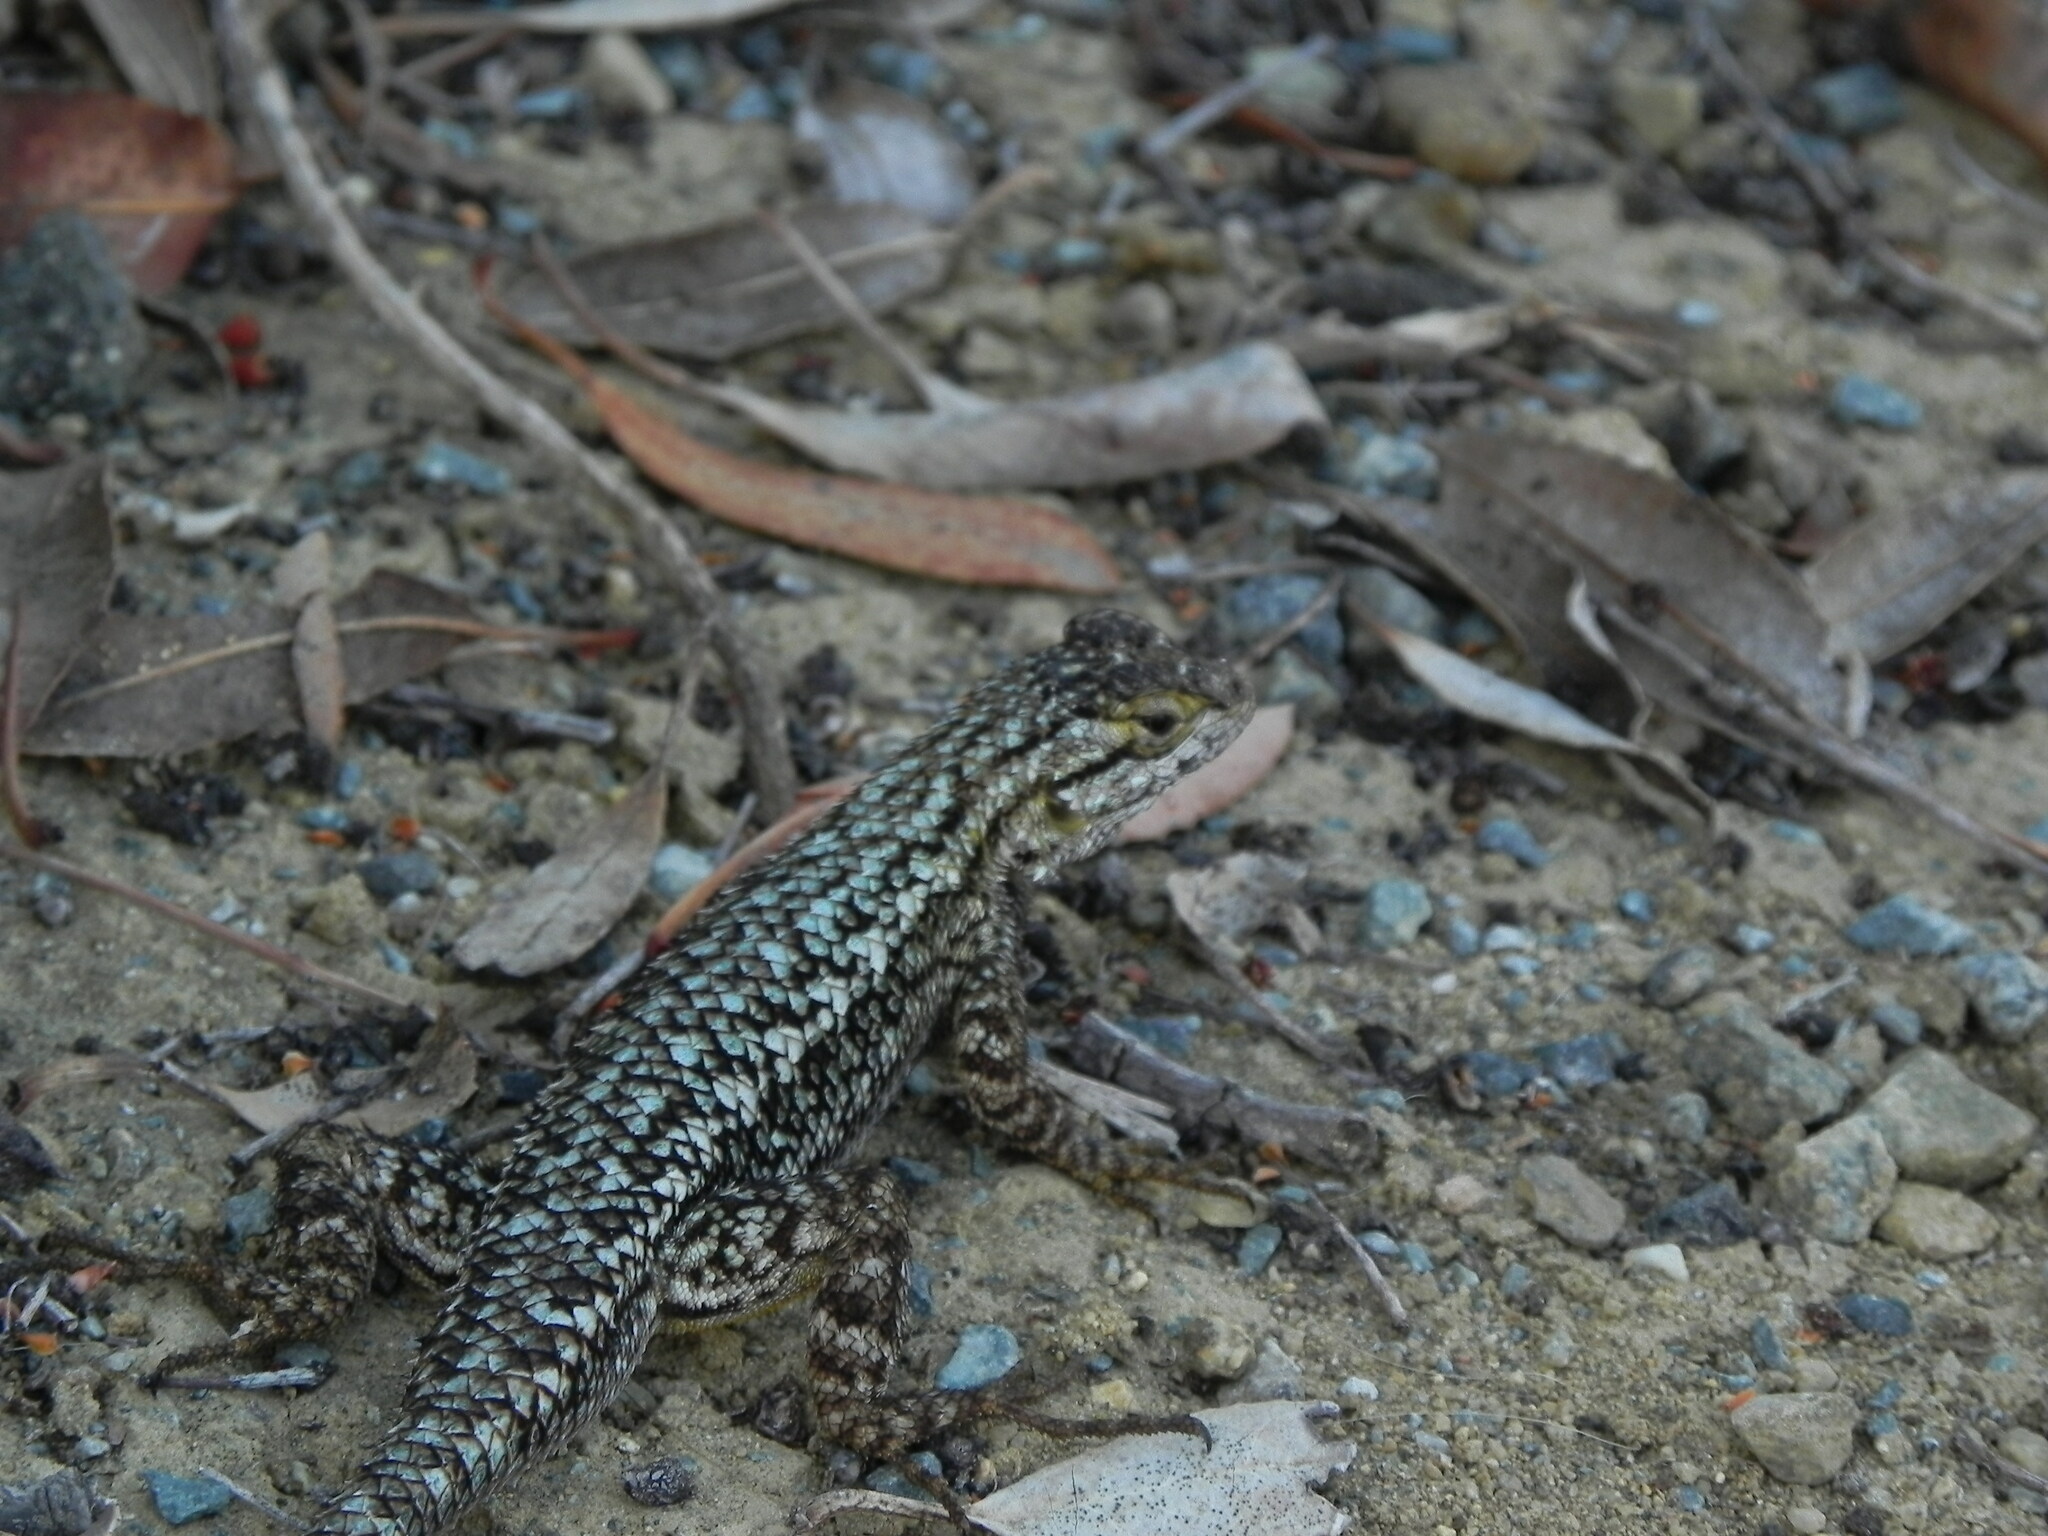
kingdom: Animalia
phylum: Chordata
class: Squamata
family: Phrynosomatidae
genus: Sceloporus
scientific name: Sceloporus occidentalis
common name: Western fence lizard
